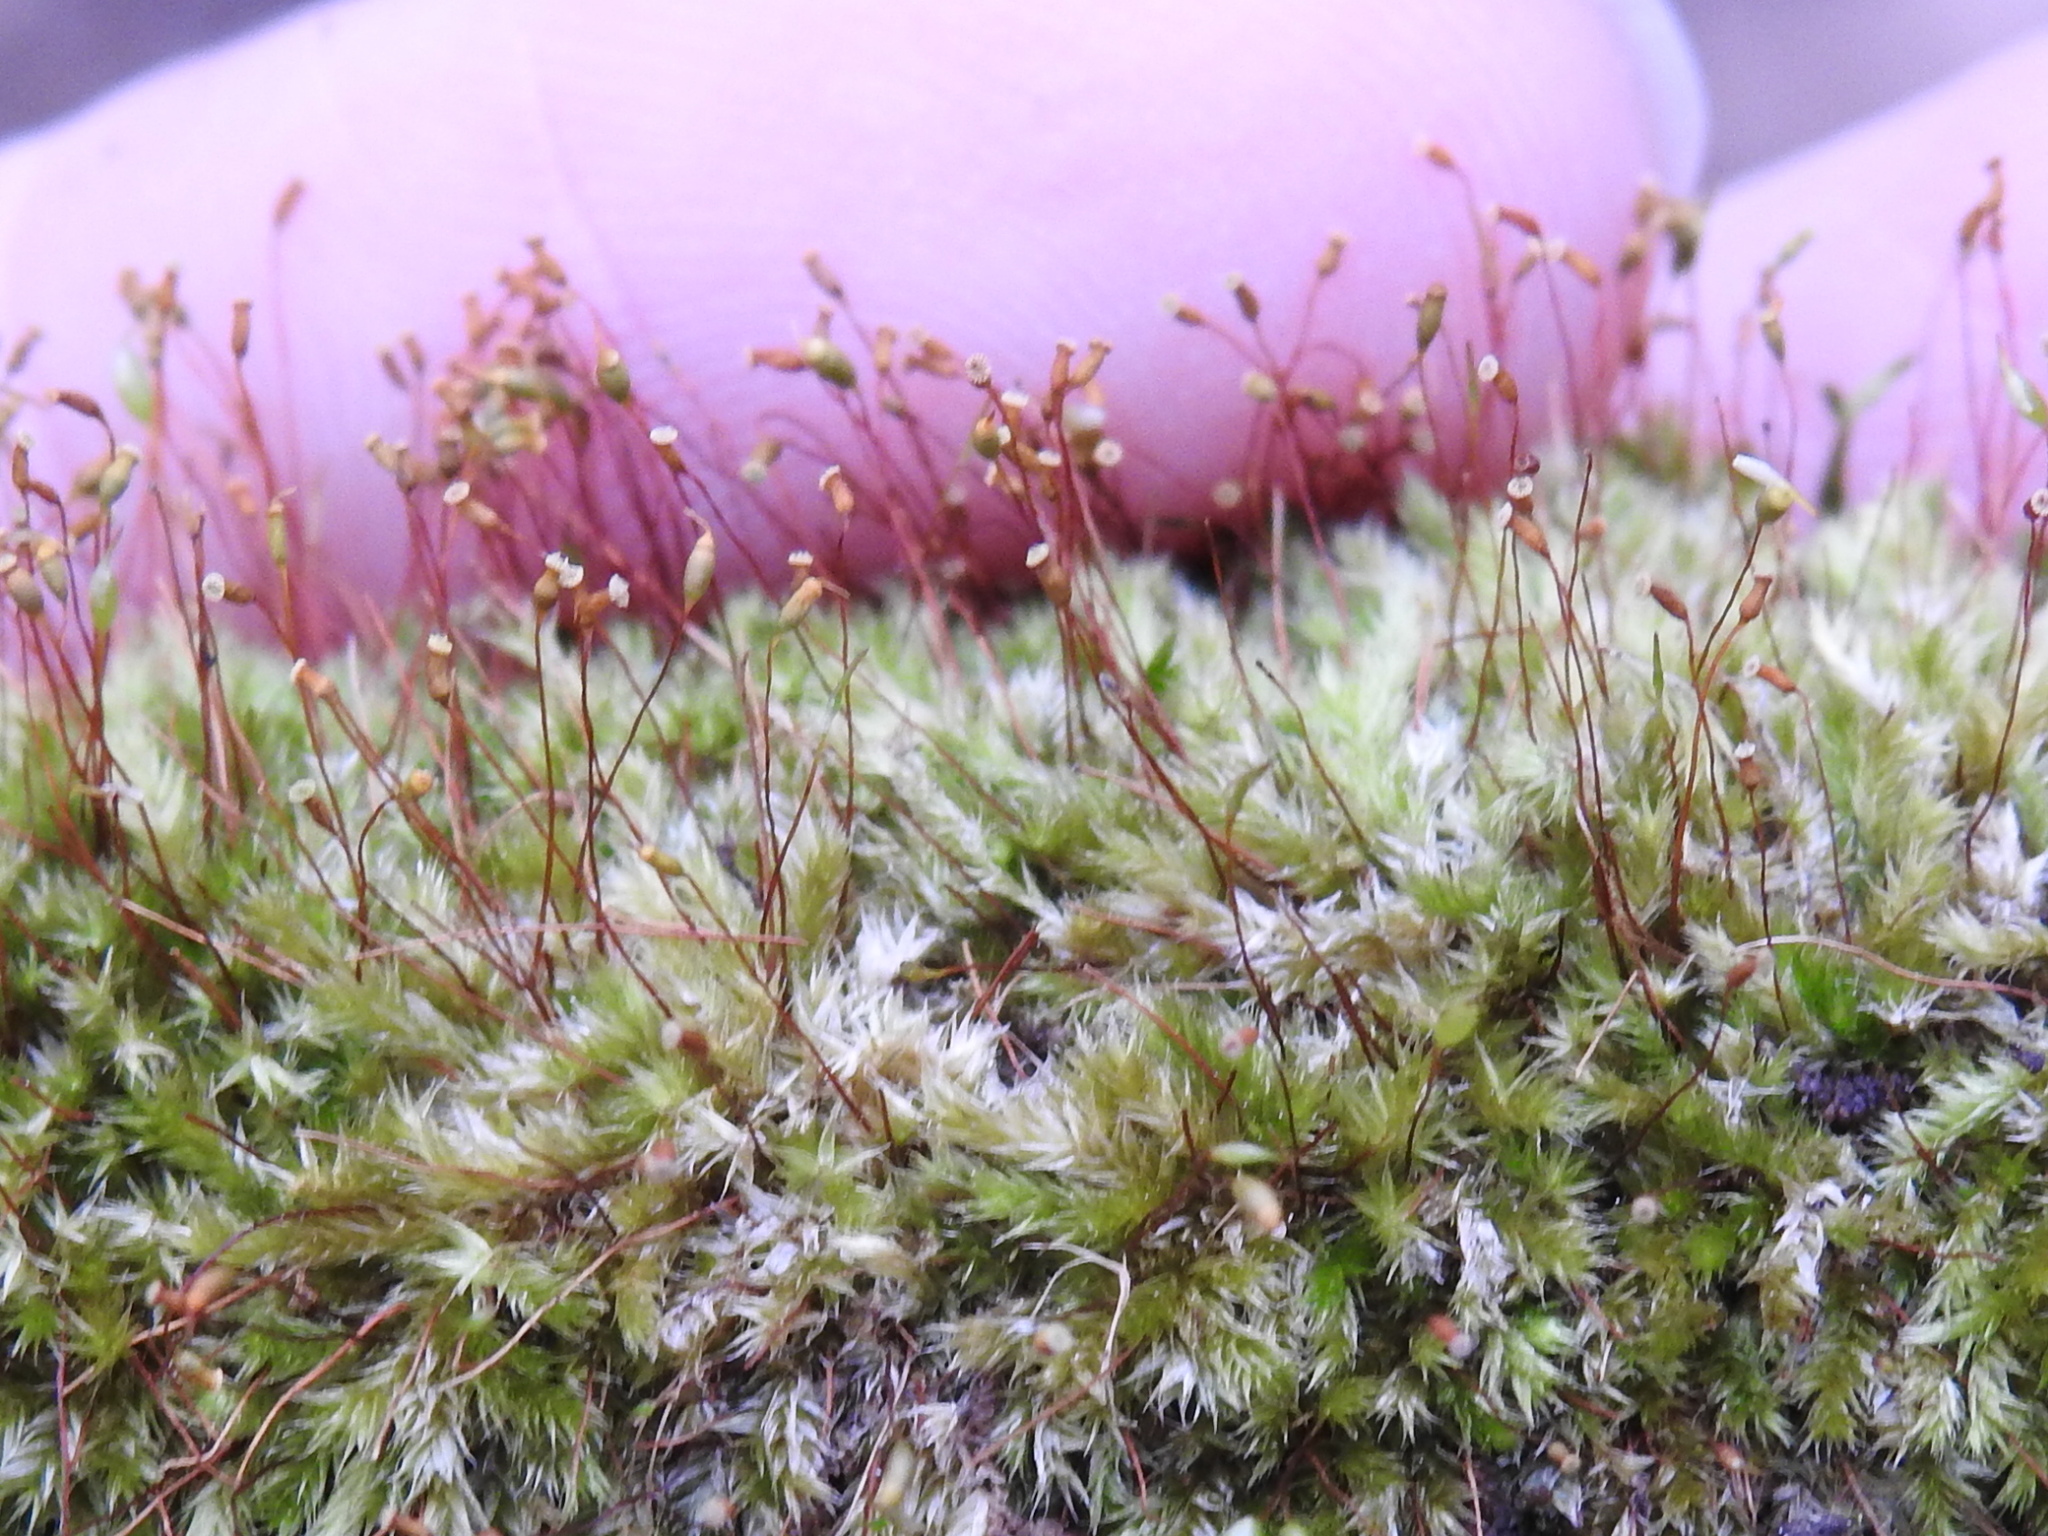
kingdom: Plantae
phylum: Bryophyta
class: Bryopsida
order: Dicranales
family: Ditrichaceae
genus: Ceratodon
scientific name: Ceratodon purpureus
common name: Redshank
